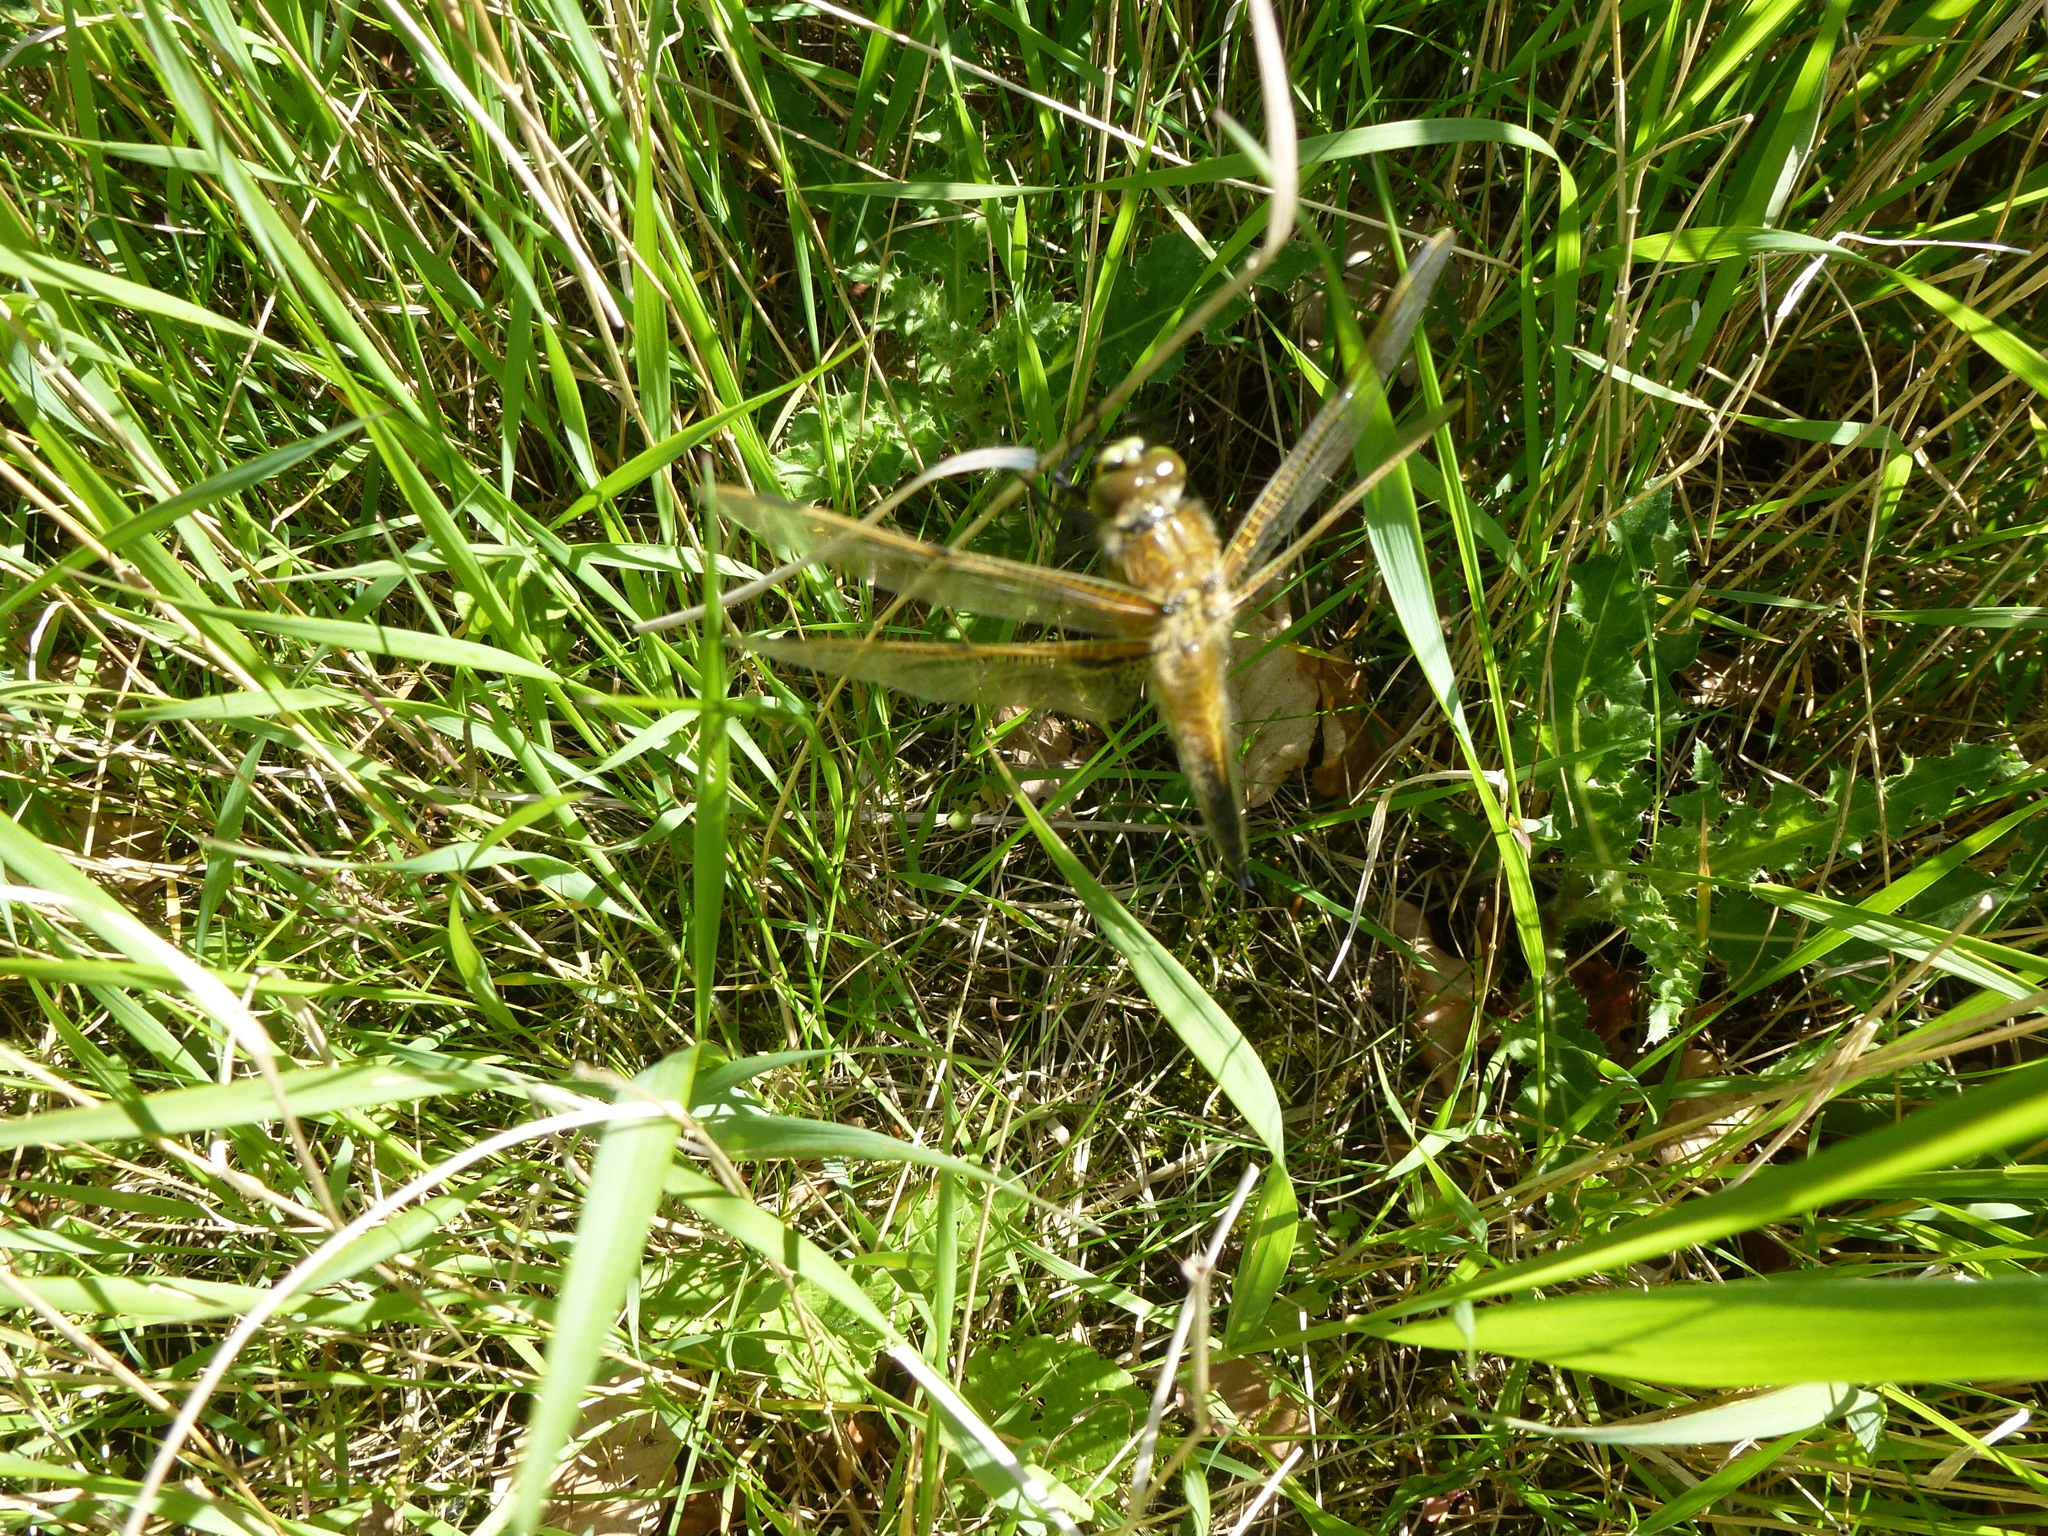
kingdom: Animalia
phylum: Arthropoda
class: Insecta
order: Odonata
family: Libellulidae
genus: Libellula
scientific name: Libellula quadrimaculata
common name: Four-spotted chaser
